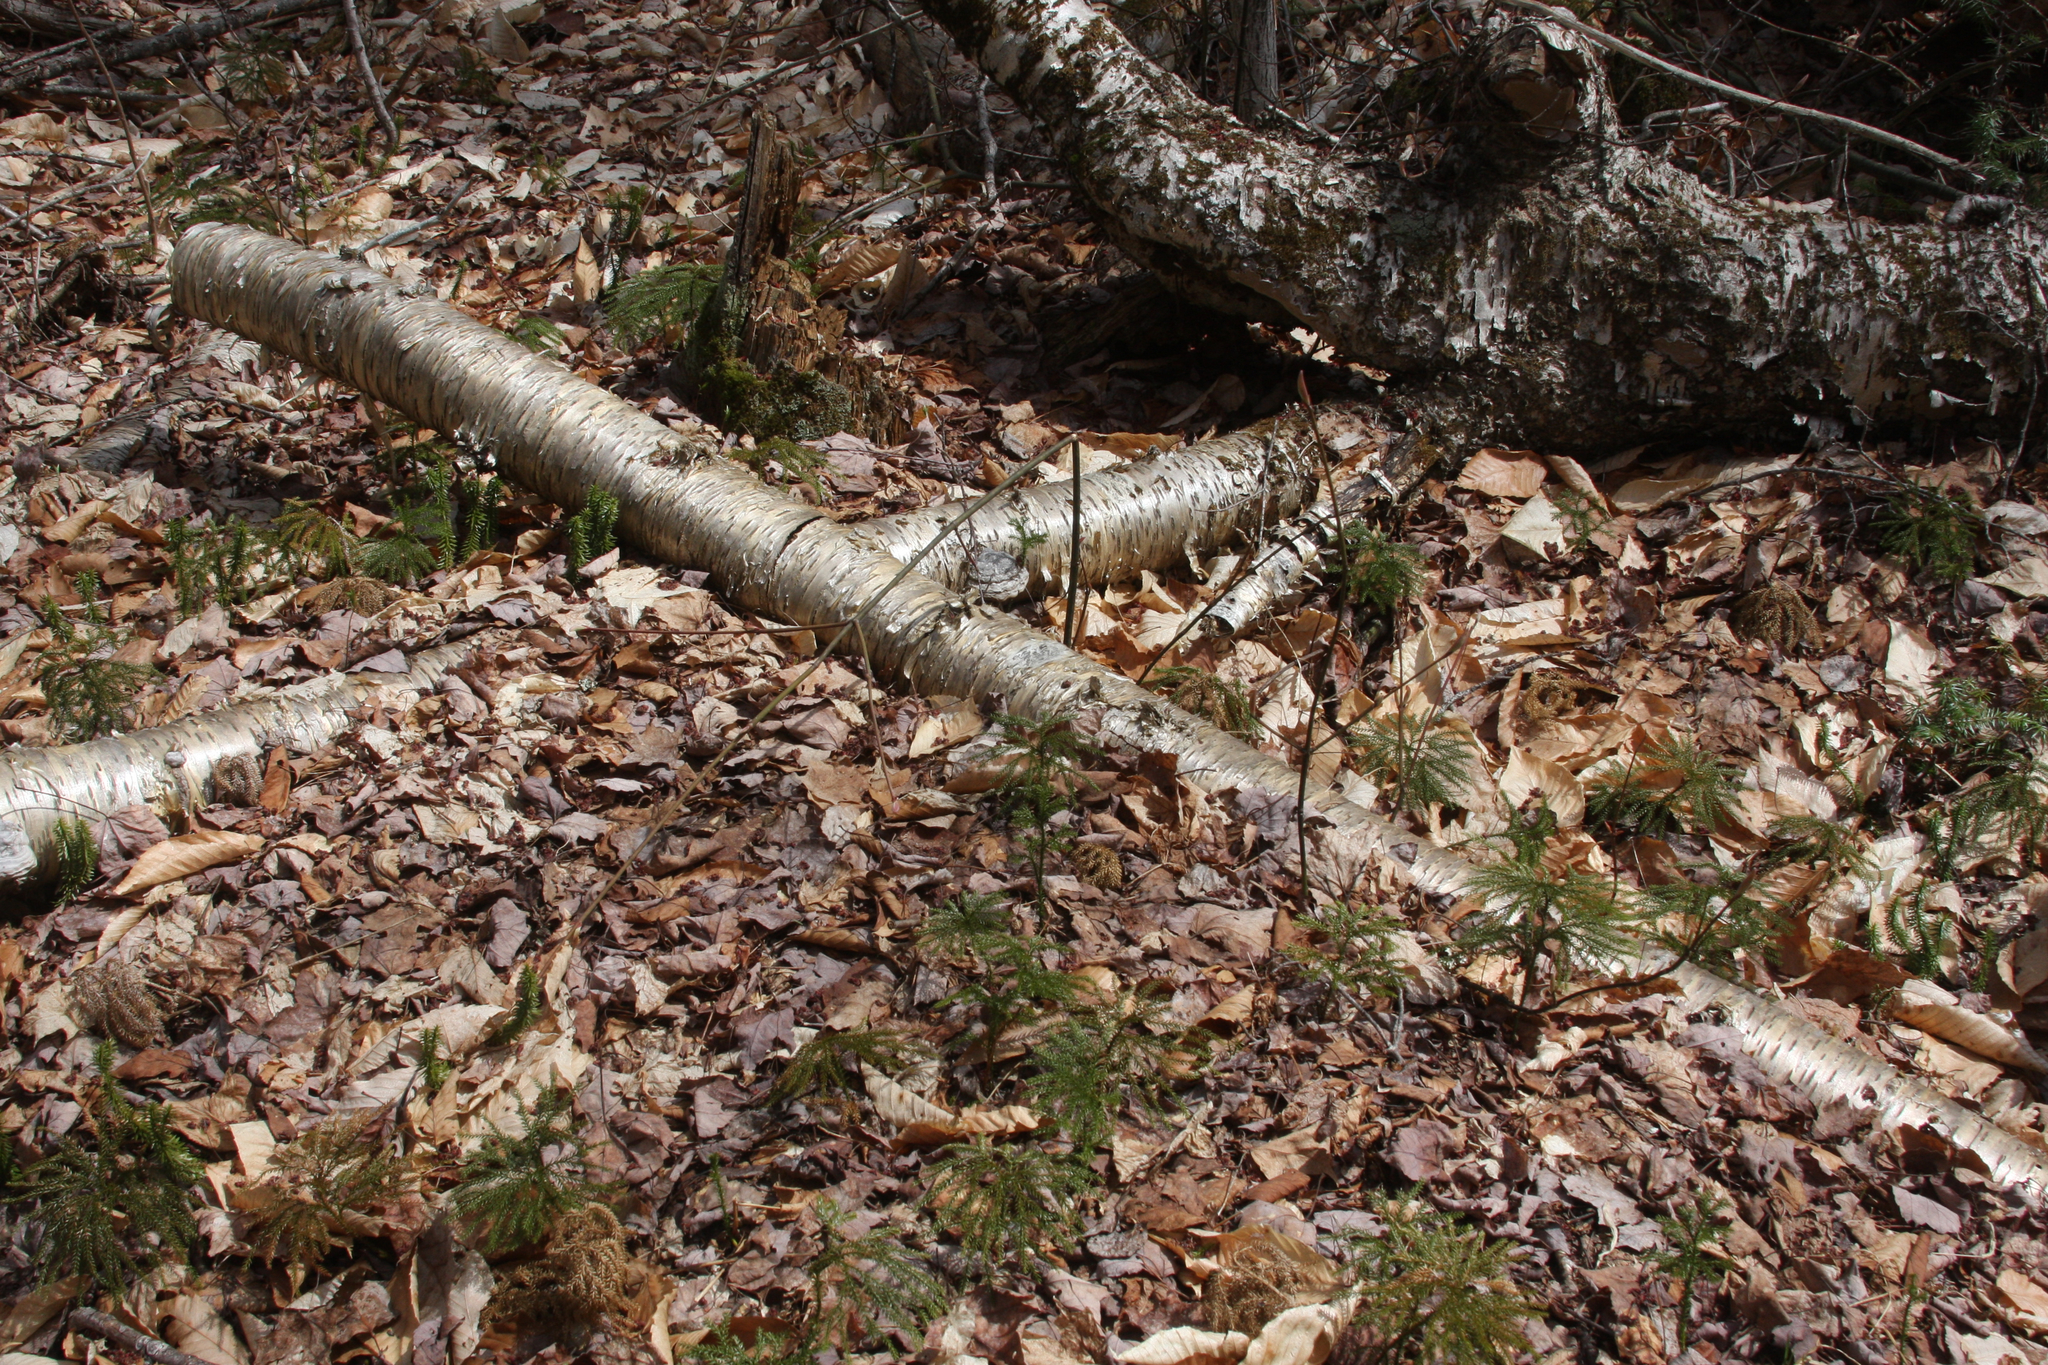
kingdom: Plantae
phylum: Tracheophyta
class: Magnoliopsida
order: Fagales
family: Betulaceae
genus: Betula
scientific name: Betula alleghaniensis
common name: Yellow birch
